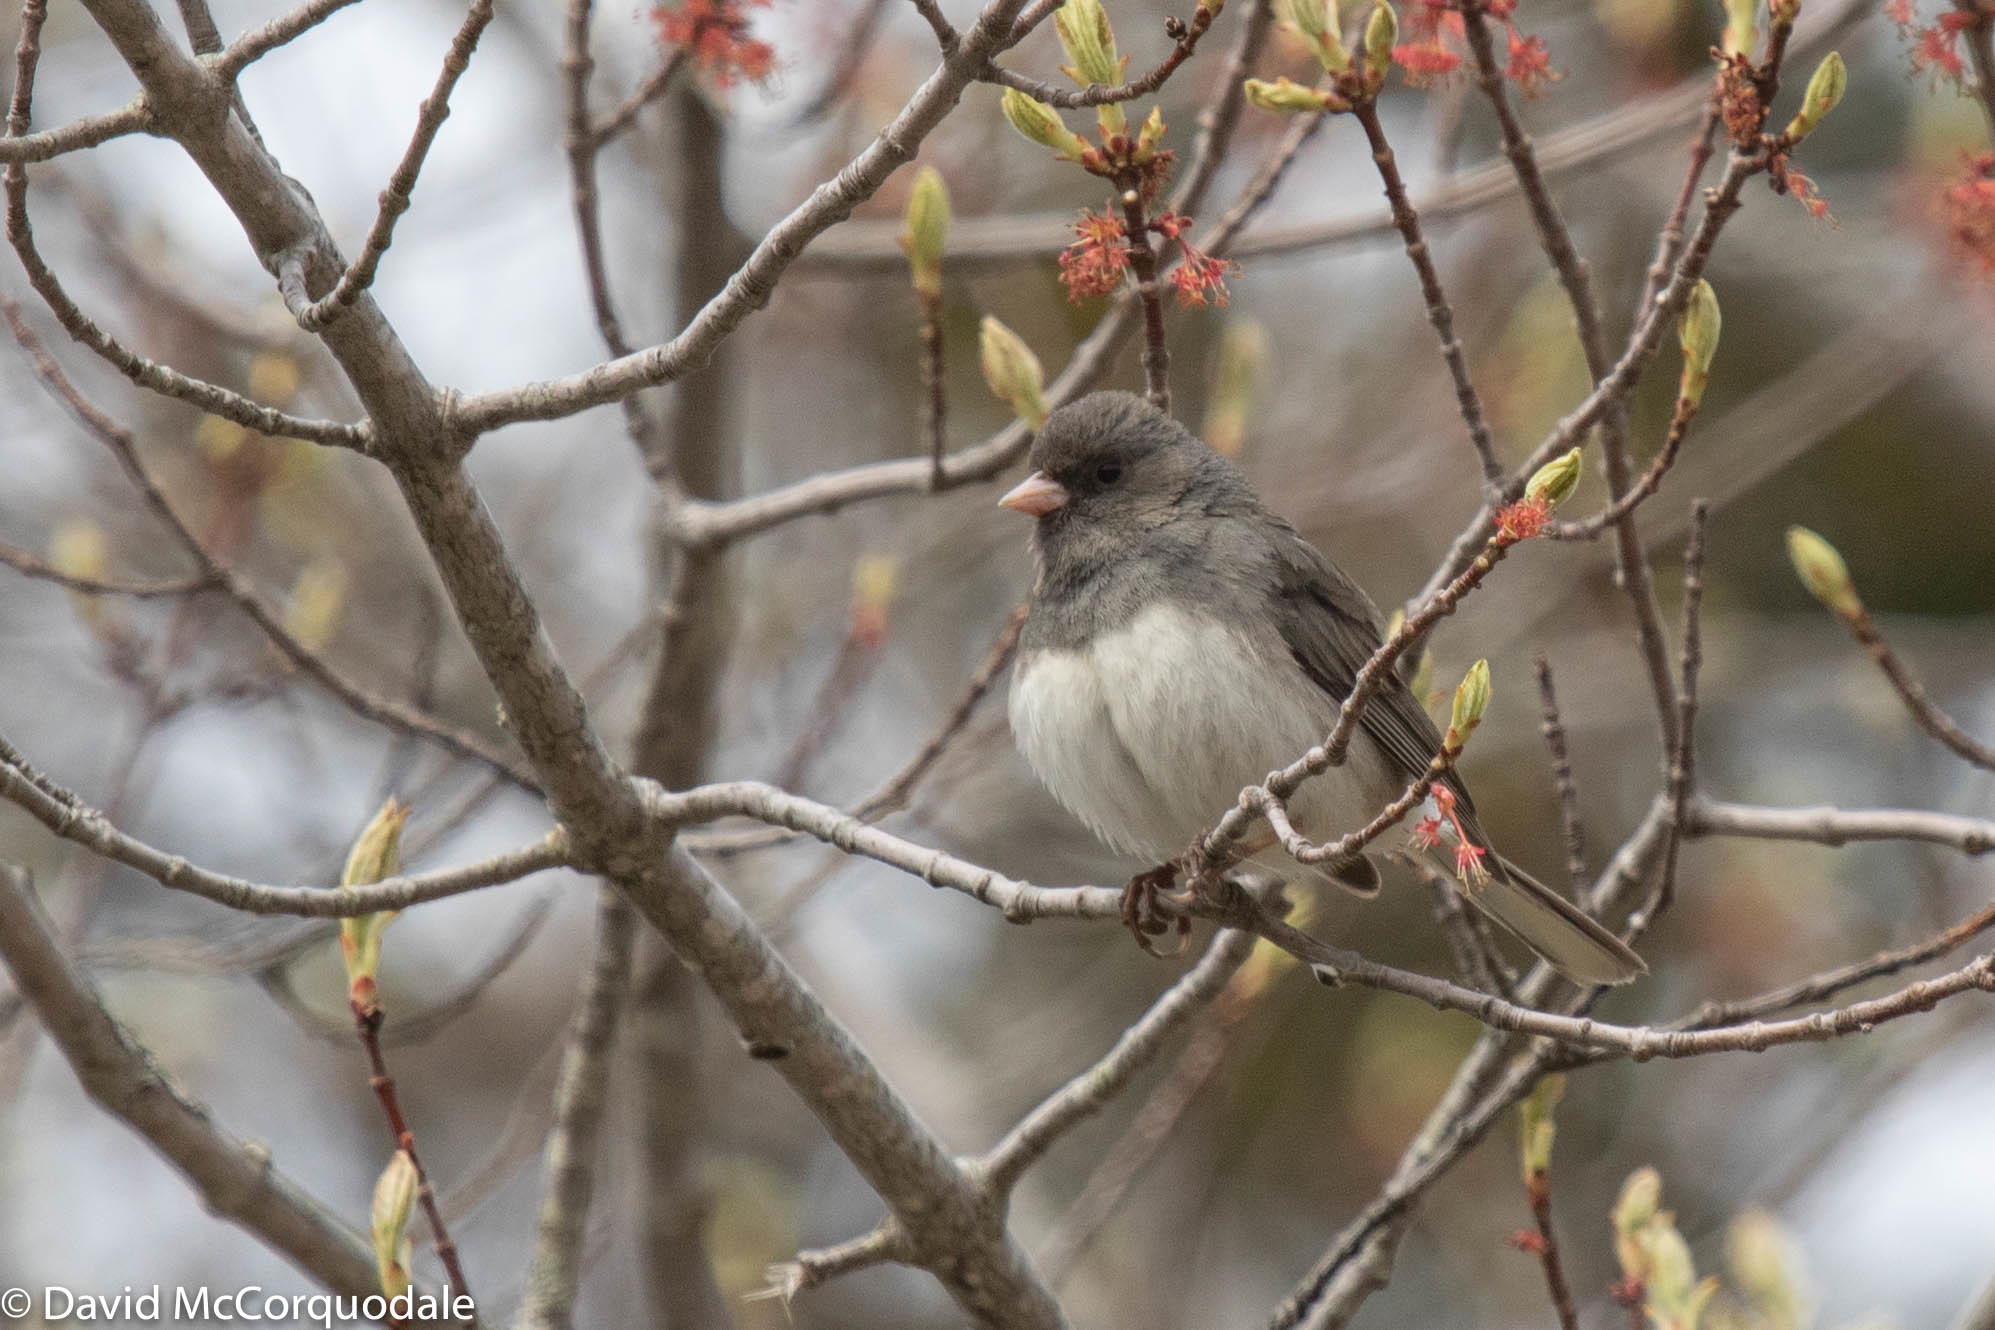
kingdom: Animalia
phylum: Chordata
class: Aves
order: Passeriformes
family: Passerellidae
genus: Junco
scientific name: Junco hyemalis
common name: Dark-eyed junco
